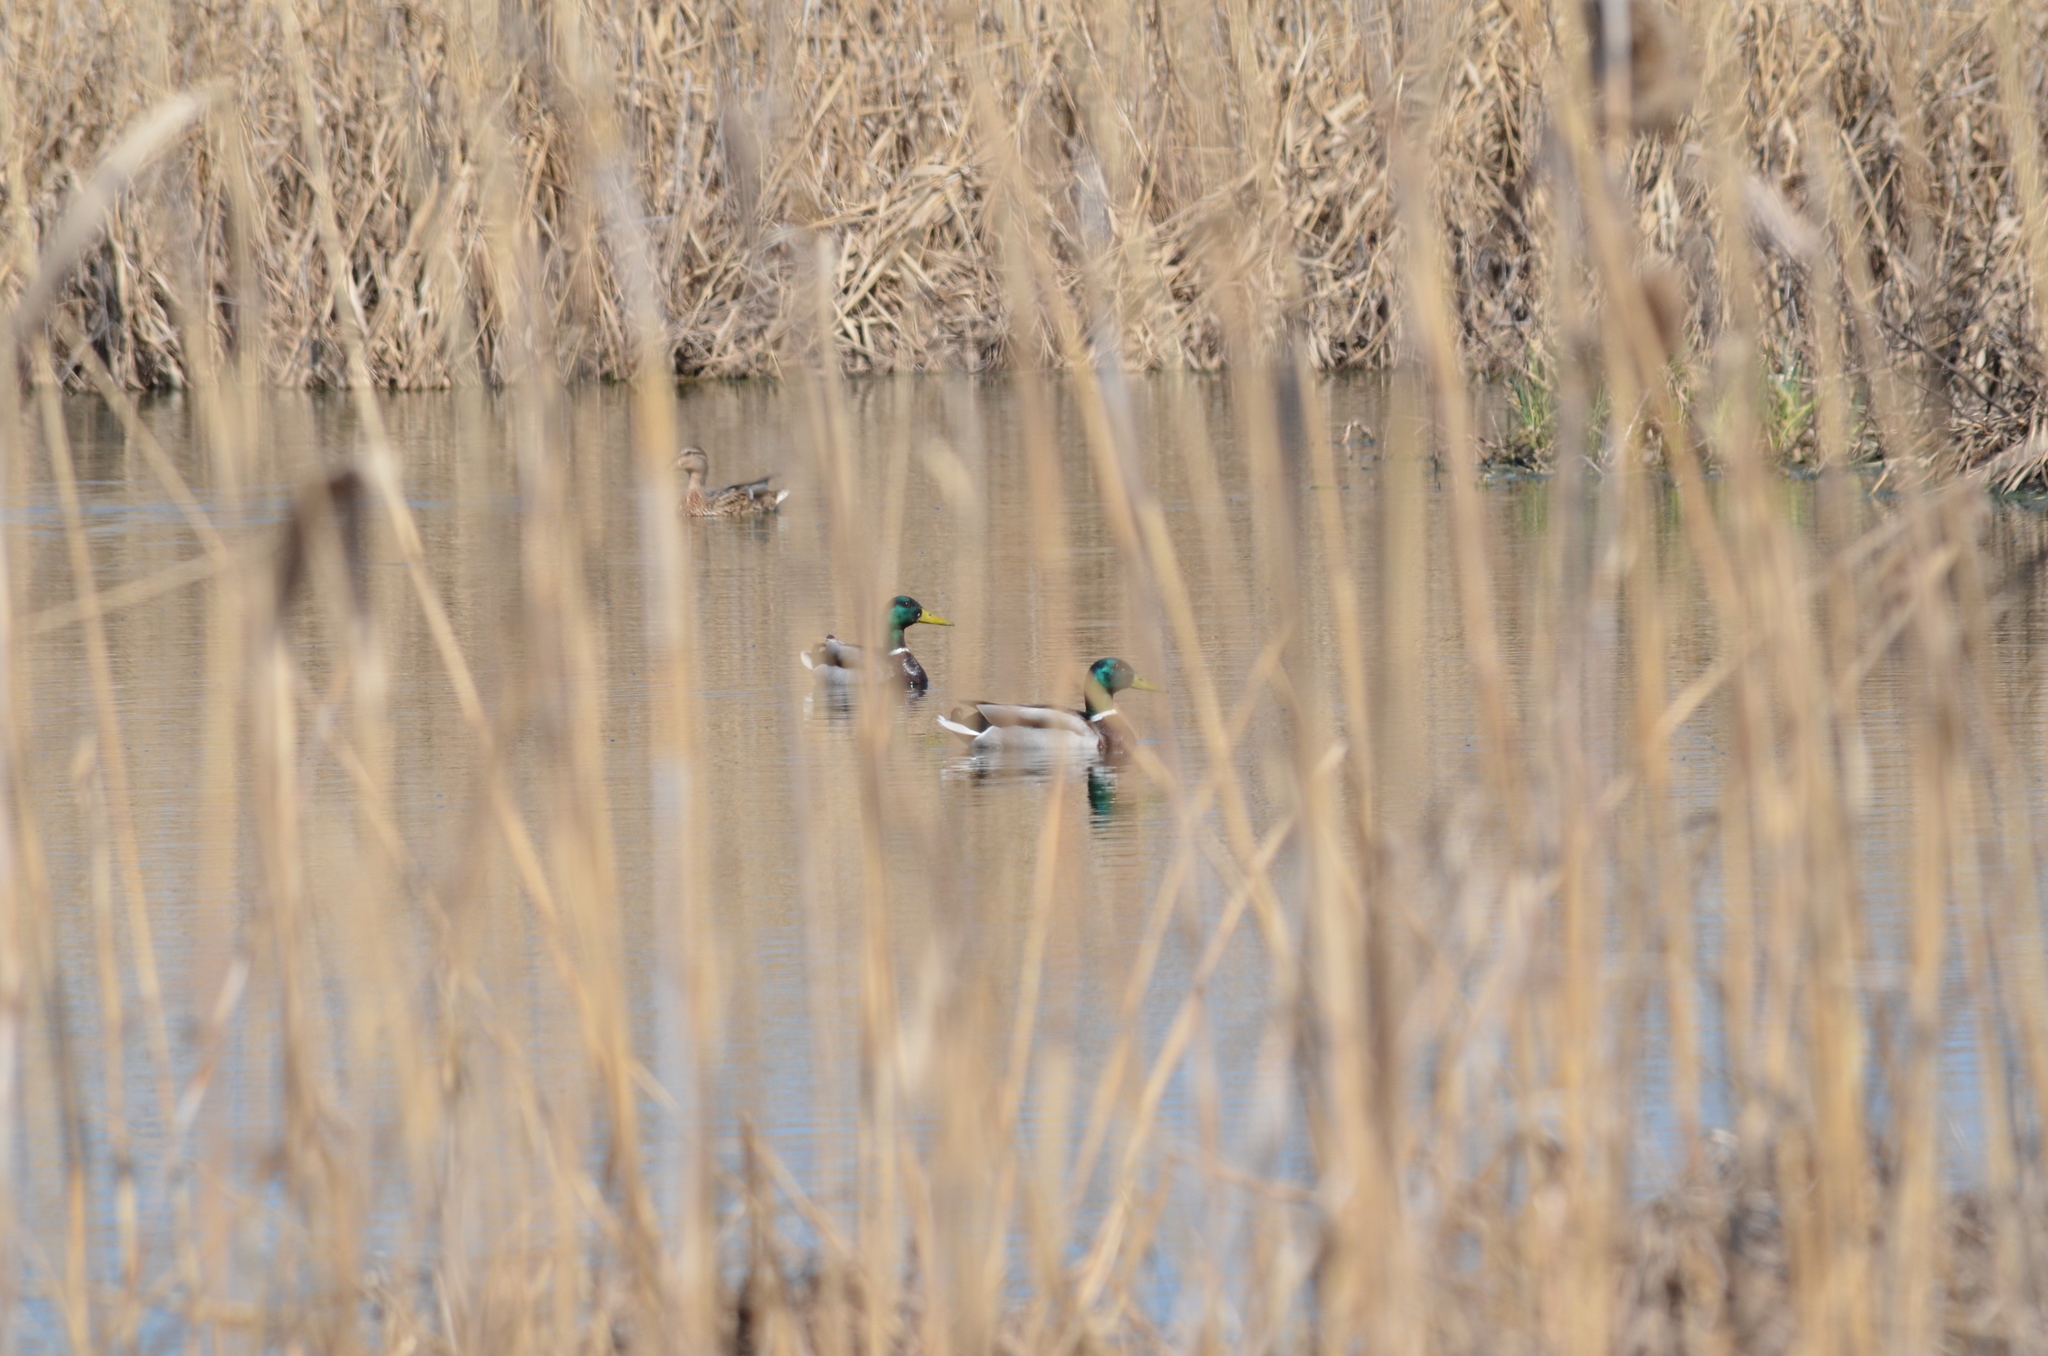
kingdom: Animalia
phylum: Chordata
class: Aves
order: Anseriformes
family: Anatidae
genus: Anas
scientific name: Anas platyrhynchos
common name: Mallard
